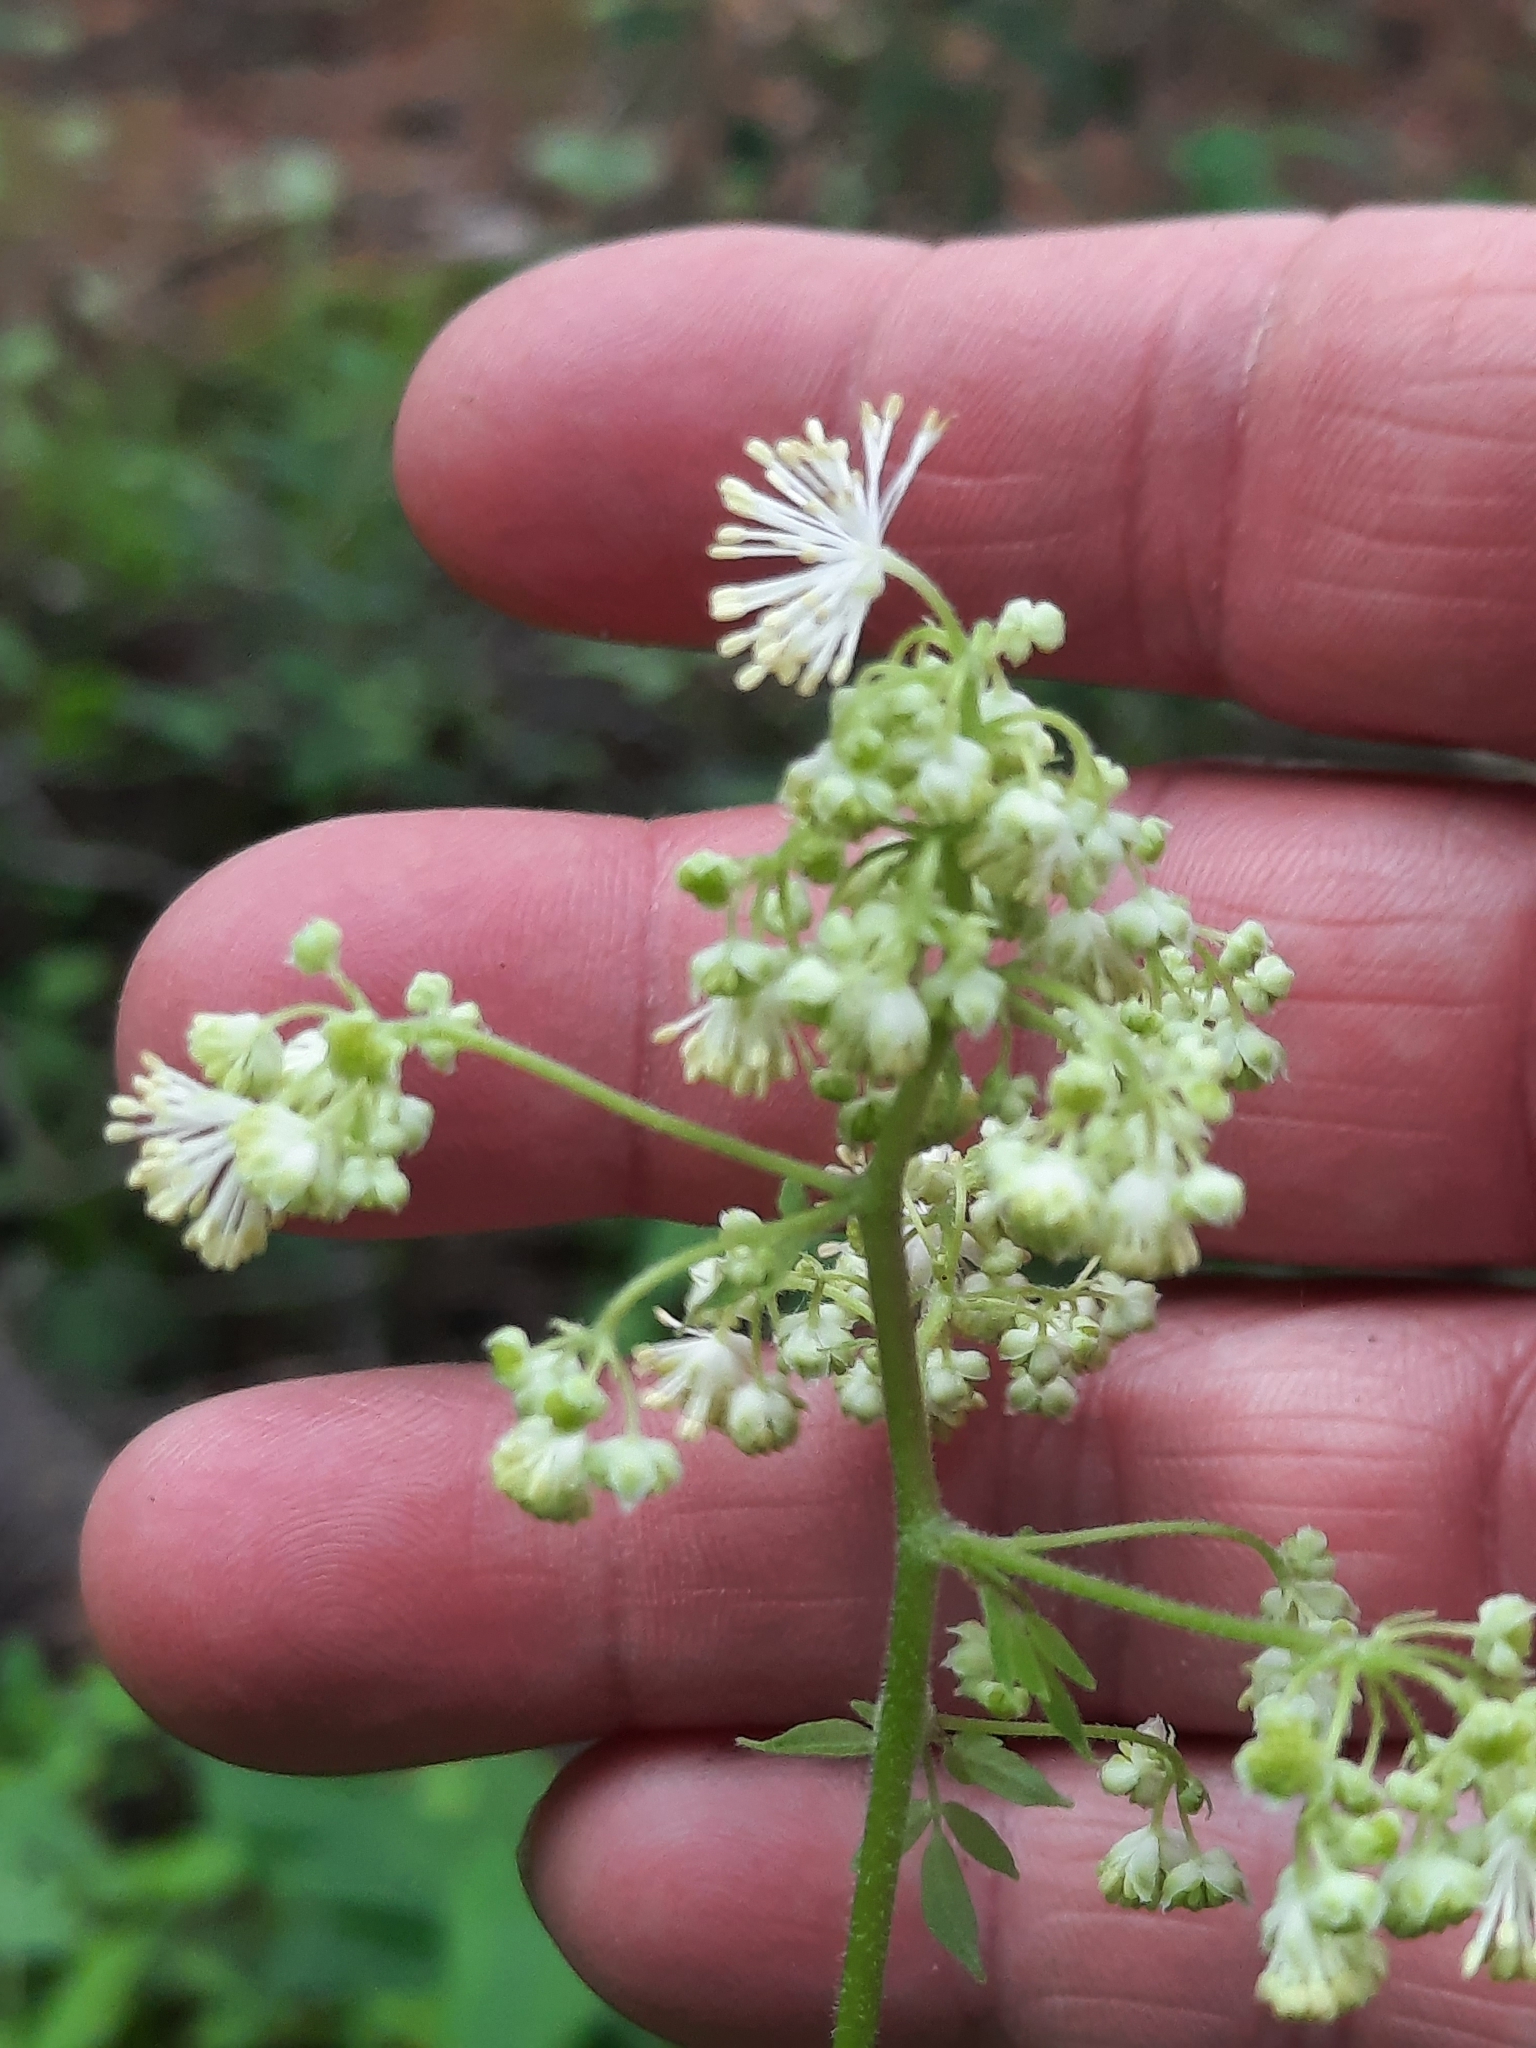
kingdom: Plantae
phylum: Tracheophyta
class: Magnoliopsida
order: Ranunculales
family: Ranunculaceae
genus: Thalictrum
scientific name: Thalictrum pubescens
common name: King-of-the-meadow
